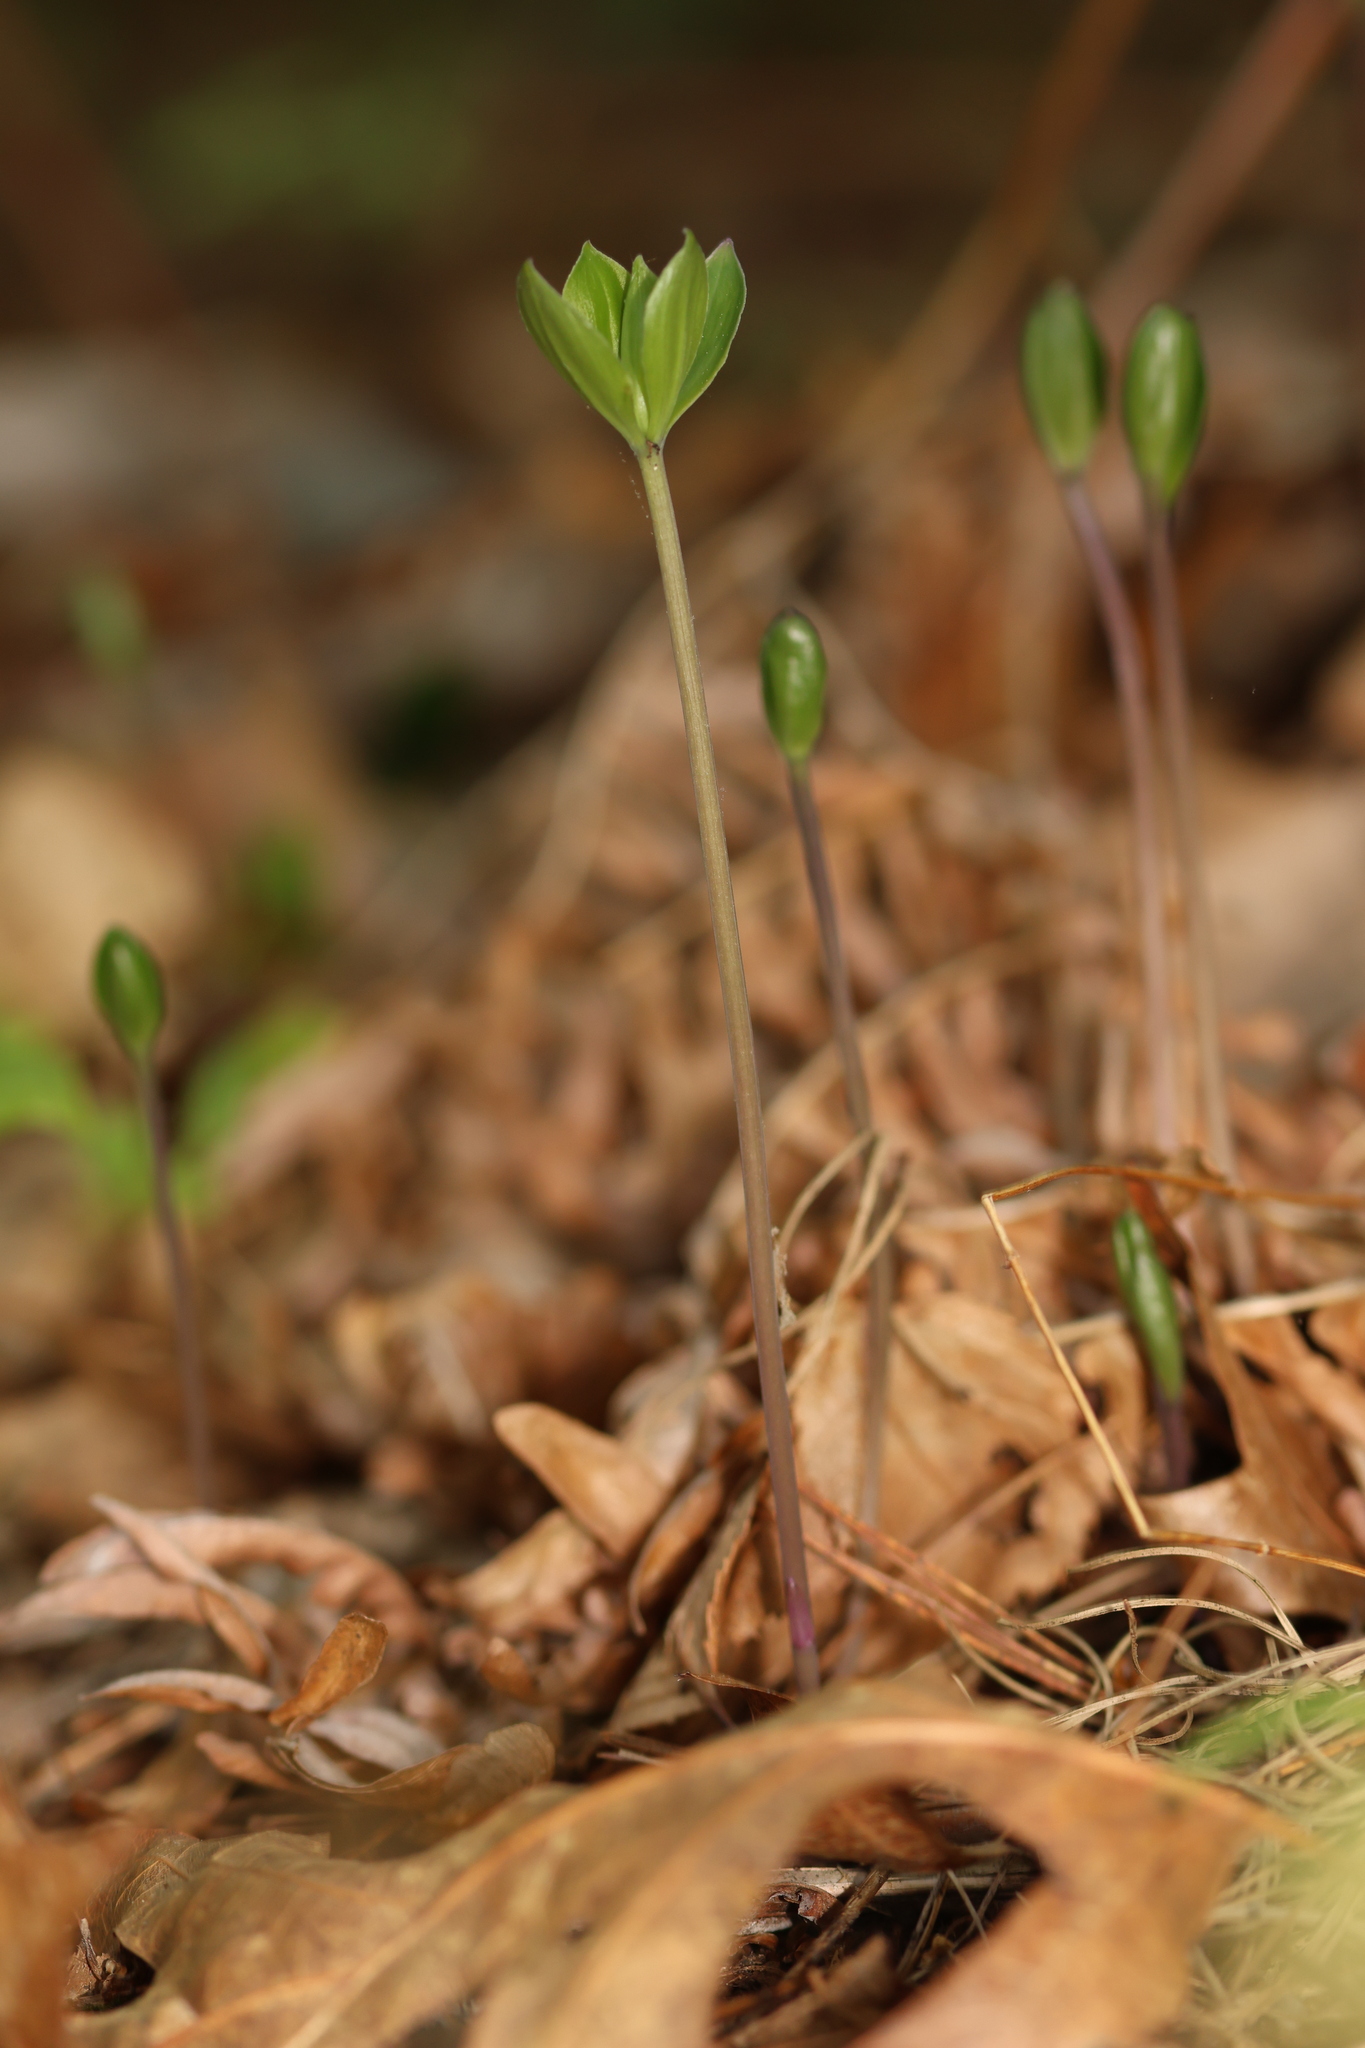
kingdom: Plantae
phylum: Tracheophyta
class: Liliopsida
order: Asparagales
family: Orchidaceae
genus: Isotria
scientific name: Isotria verticillata
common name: Large whorled pogonia
